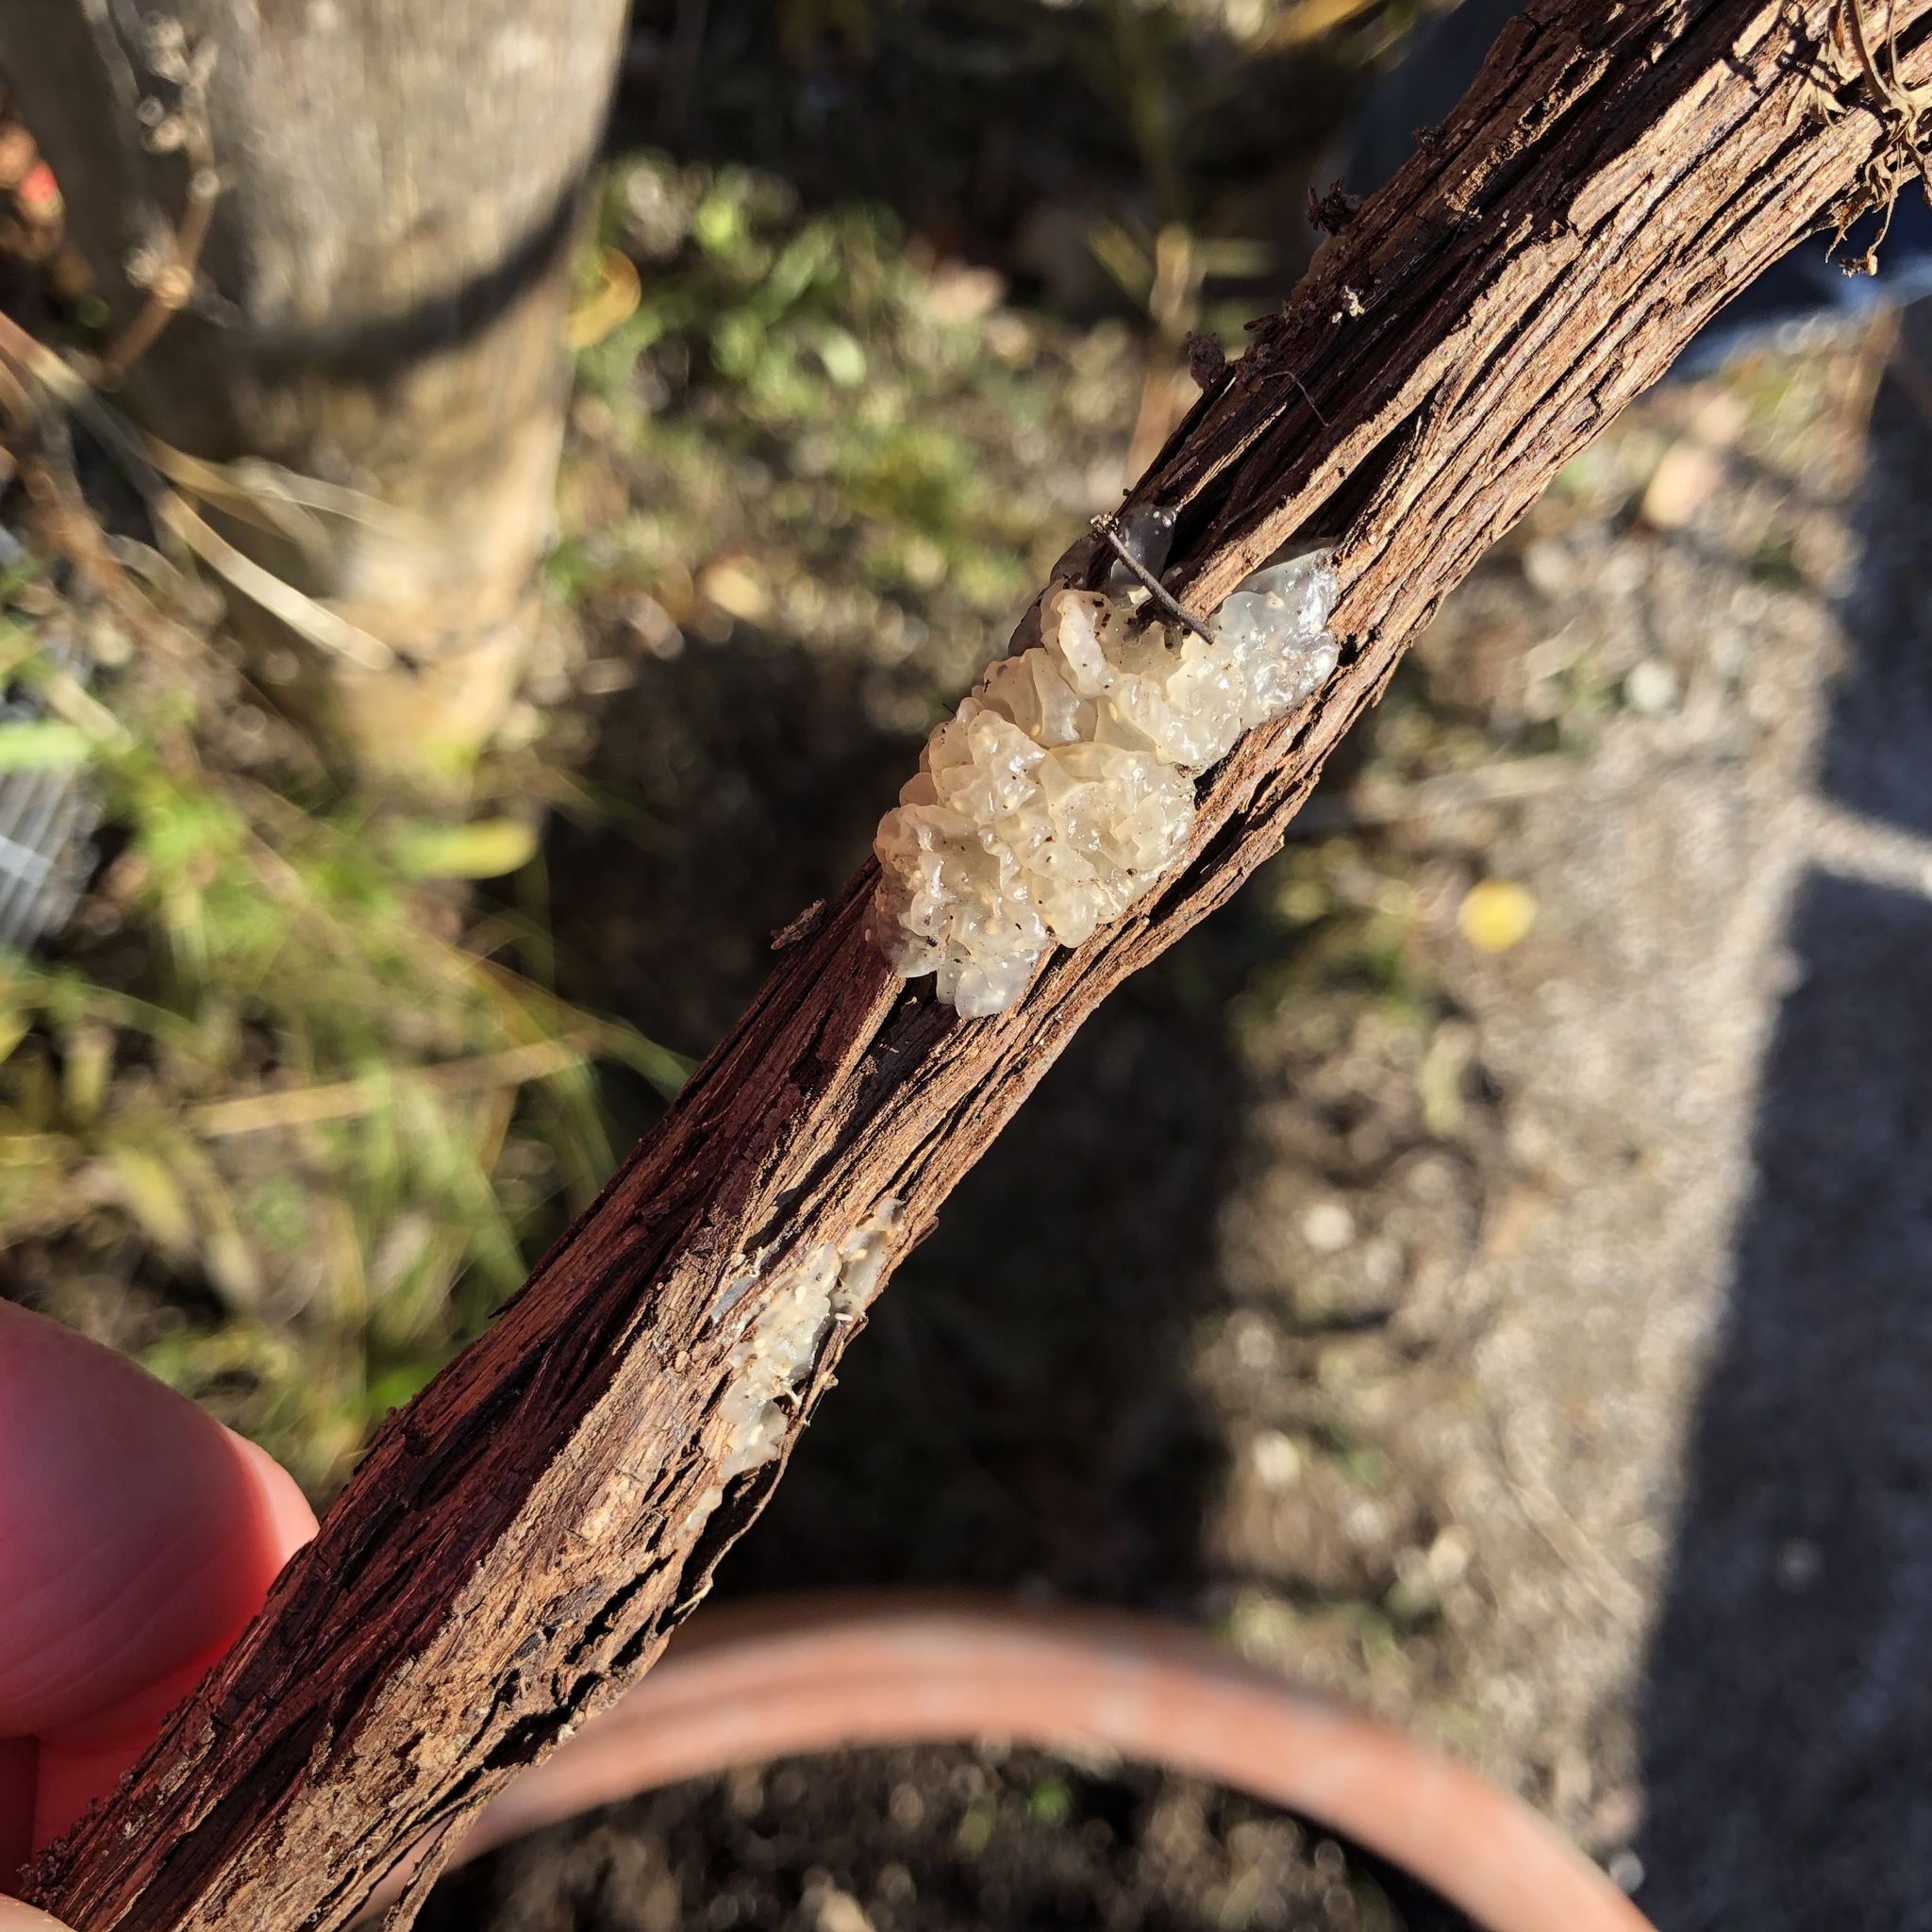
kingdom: Fungi
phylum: Basidiomycota
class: Agaricomycetes
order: Auriculariales
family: Hyaloriaceae
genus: Myxarium
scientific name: Myxarium nucleatum
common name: Crystal brain fungus
